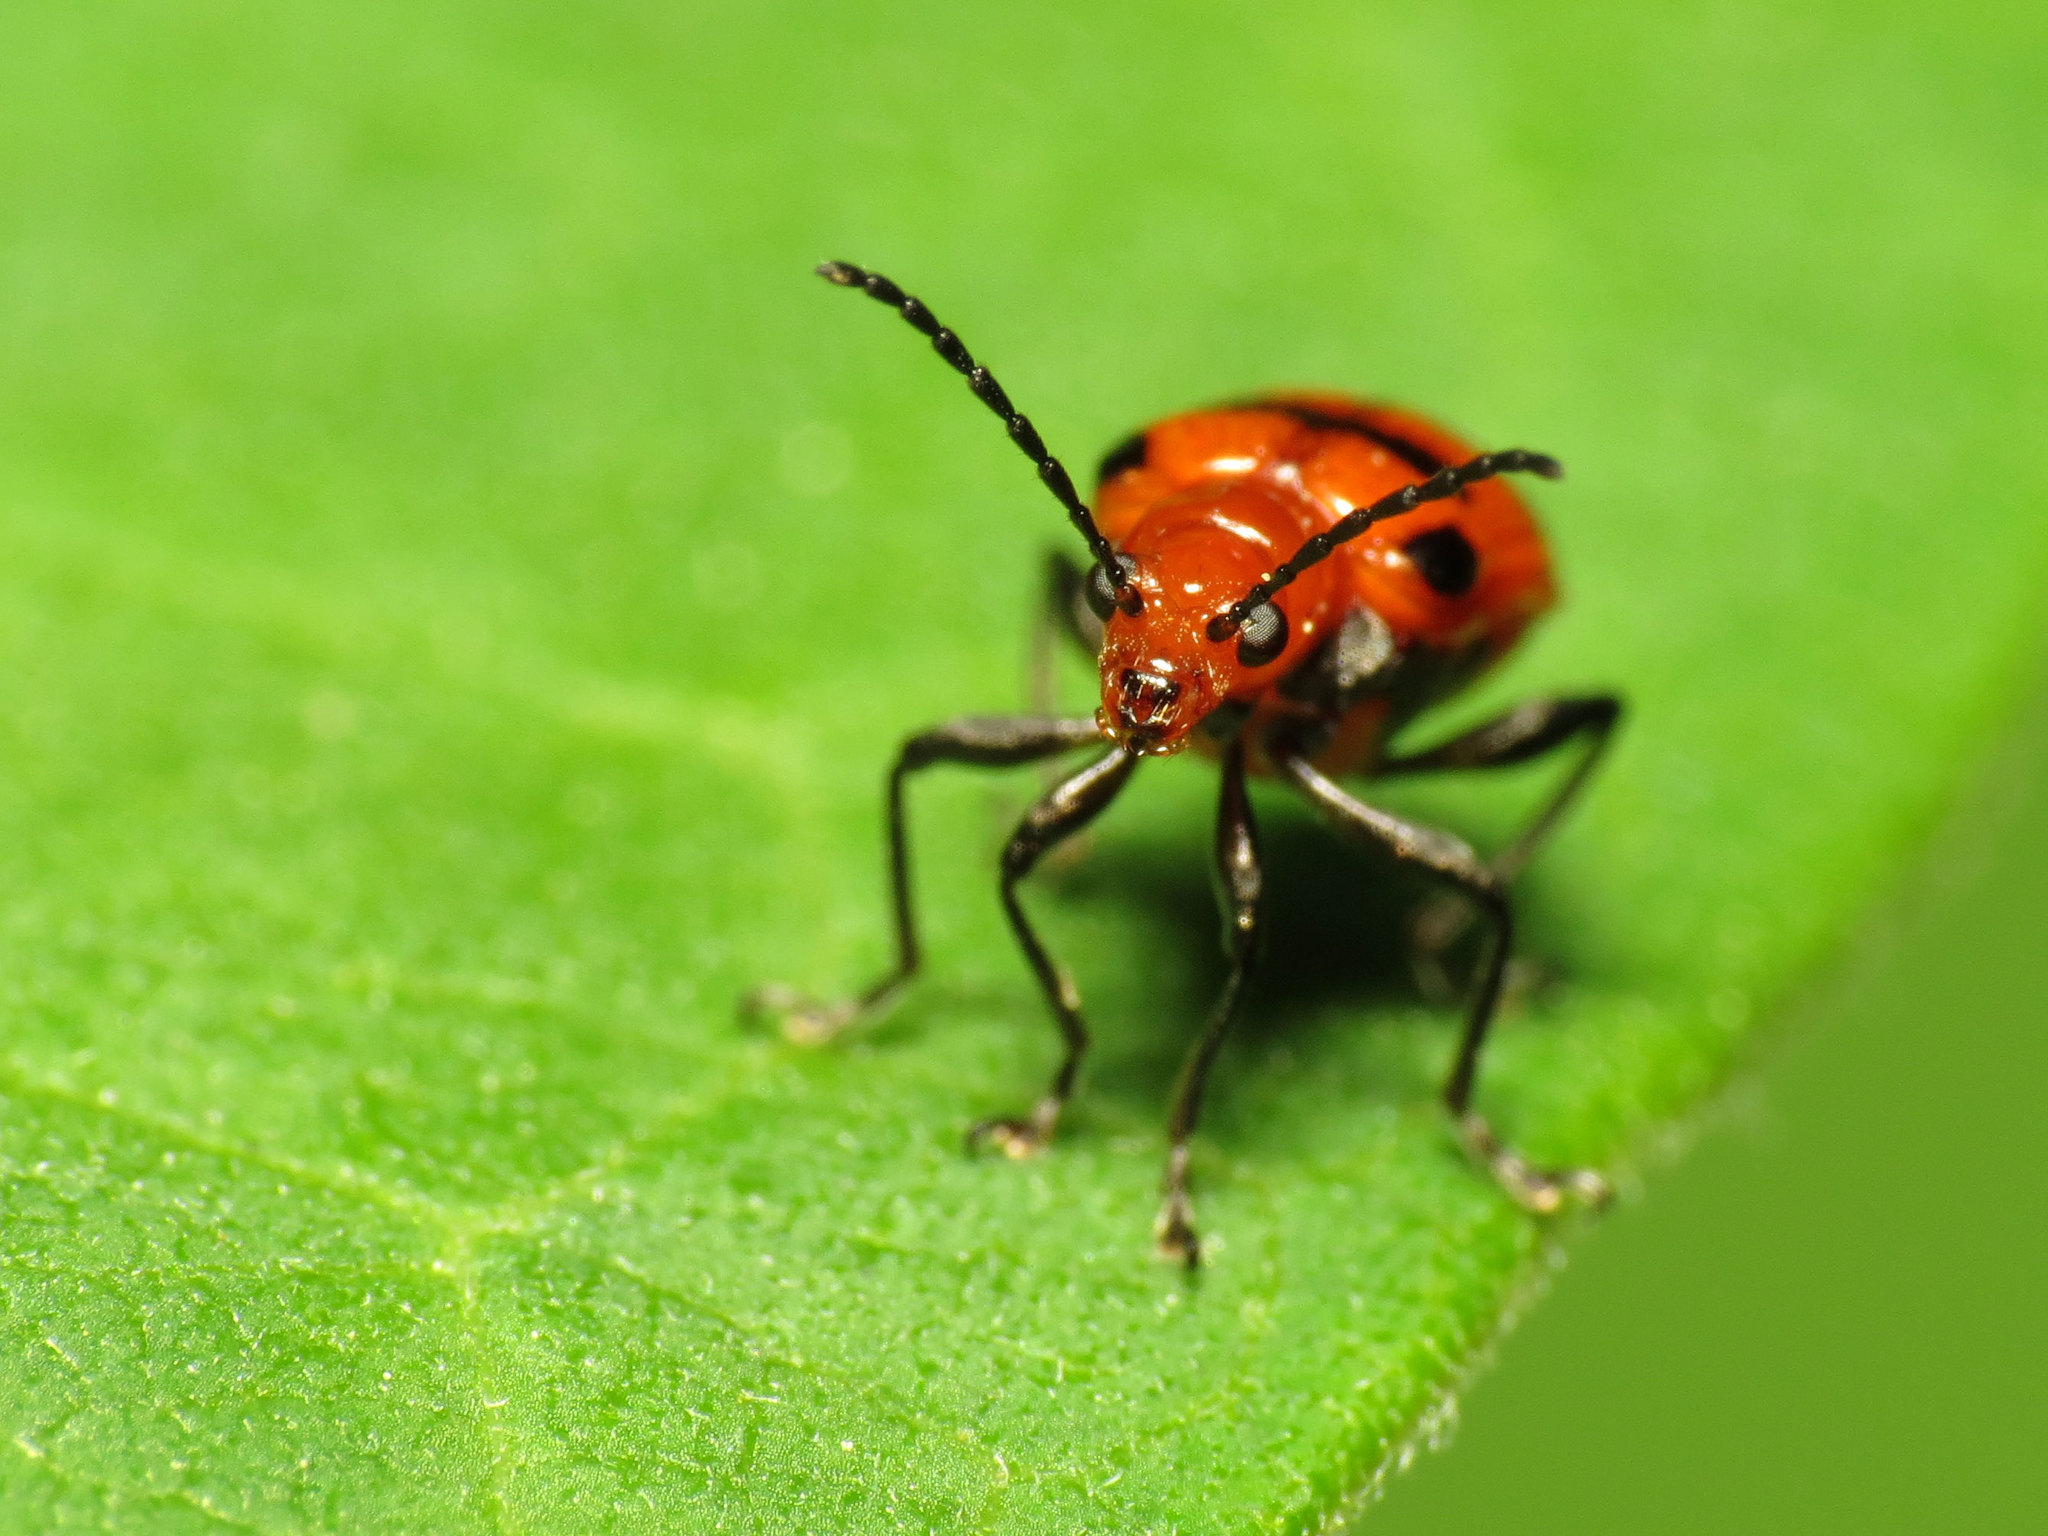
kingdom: Animalia
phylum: Arthropoda
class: Insecta
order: Coleoptera
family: Chrysomelidae
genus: Neolema
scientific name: Neolema sexpunctata
